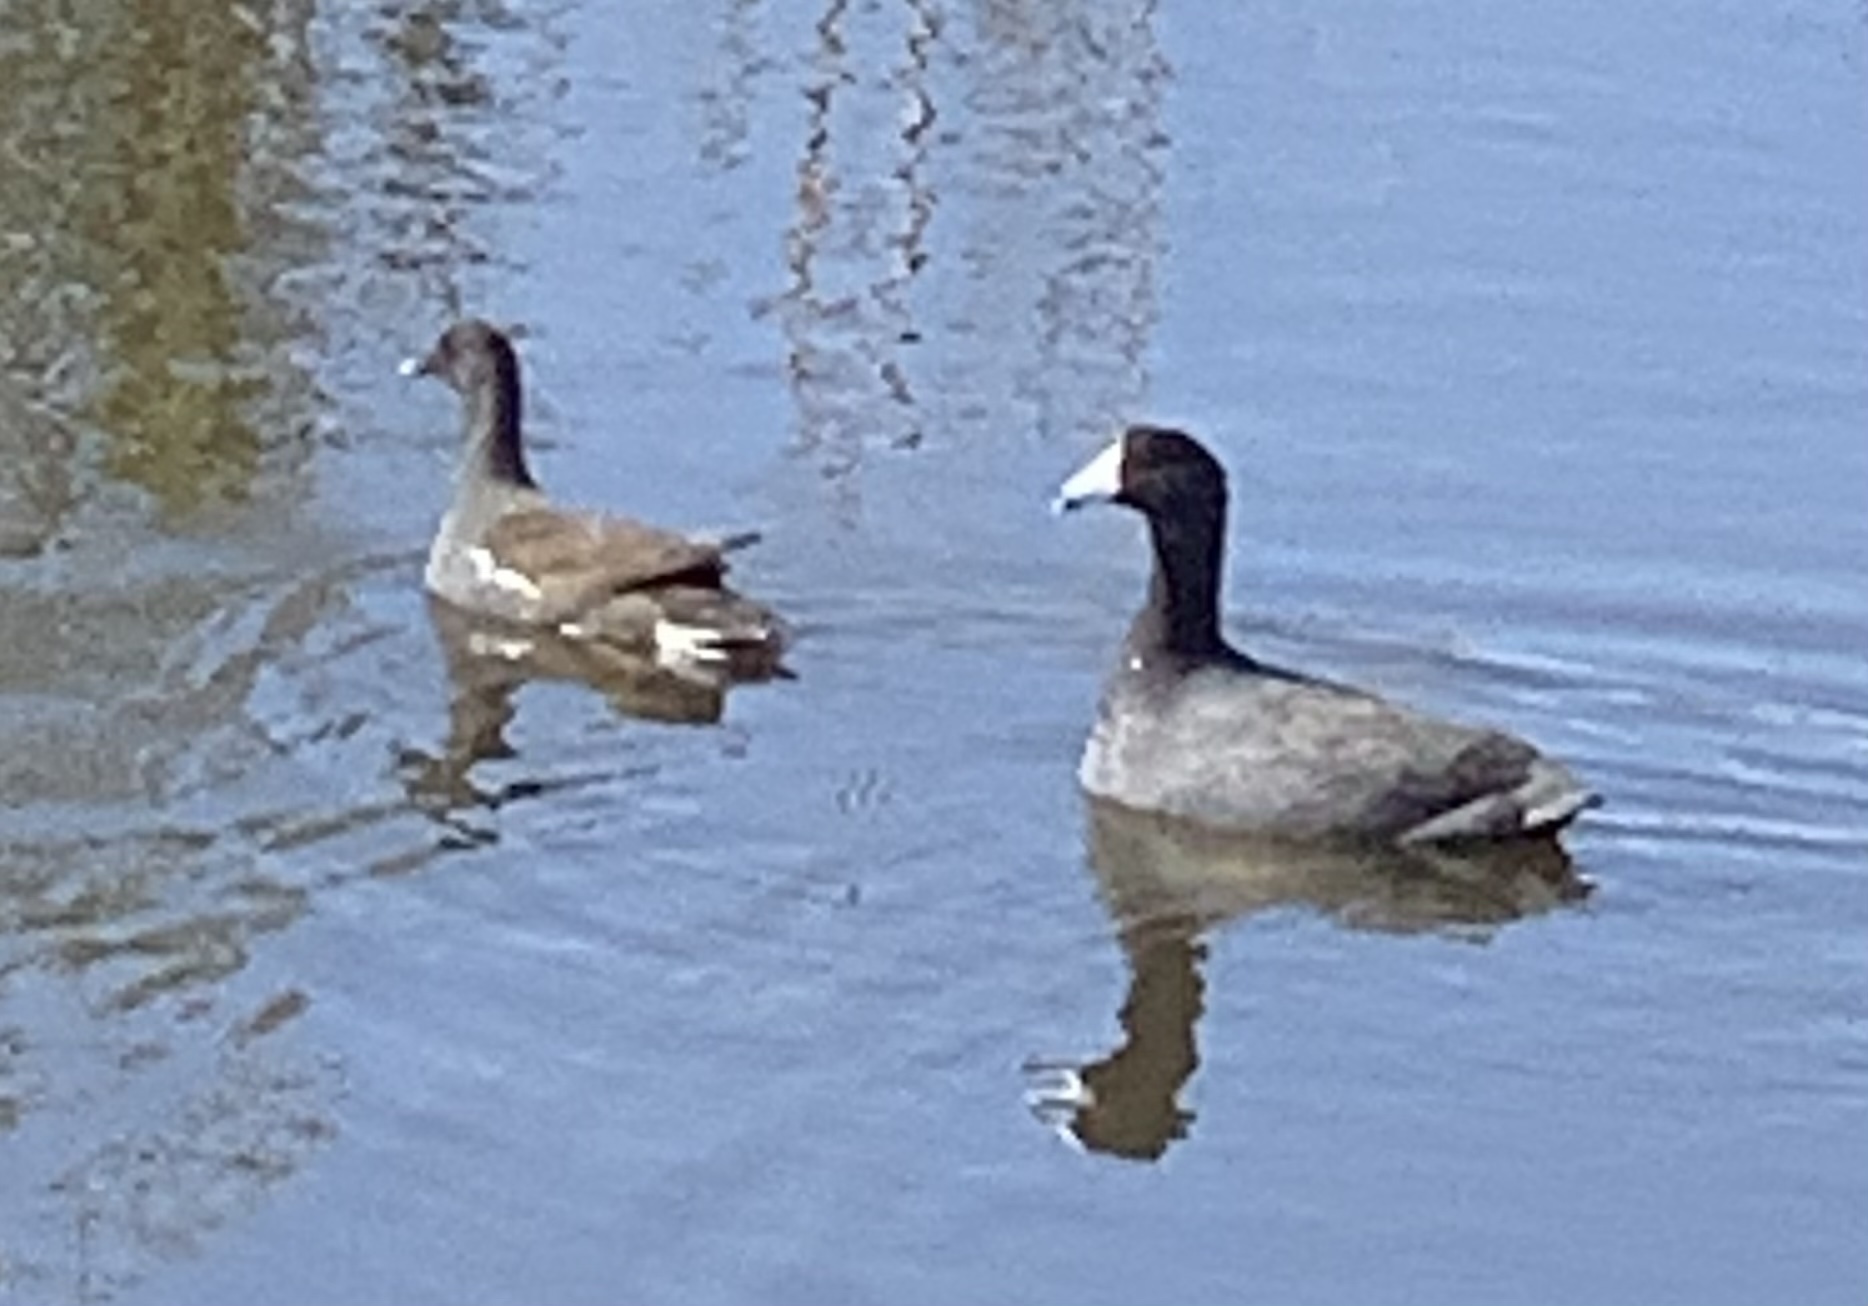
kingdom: Animalia
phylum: Chordata
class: Aves
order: Gruiformes
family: Rallidae
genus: Fulica
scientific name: Fulica americana
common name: American coot
